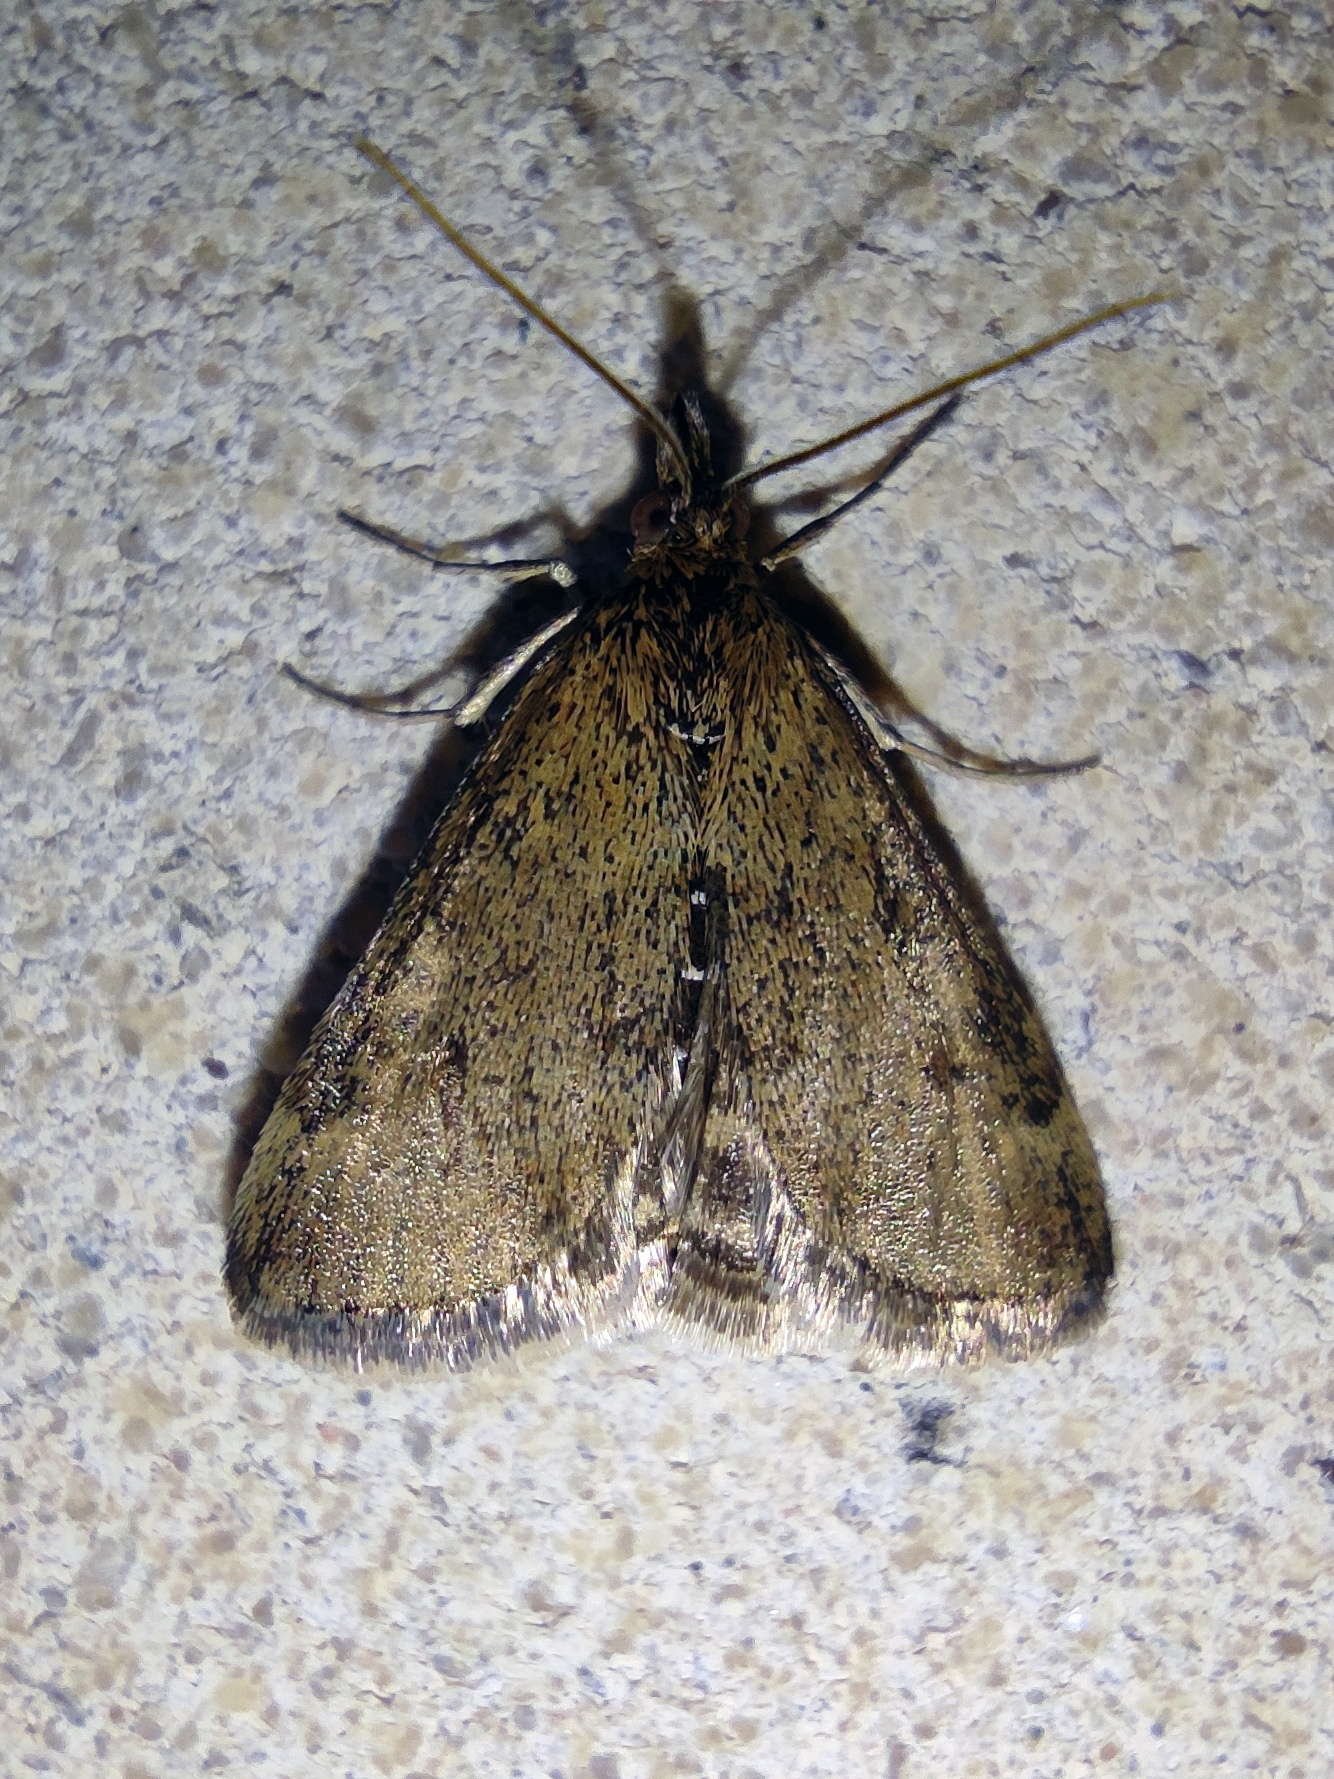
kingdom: Animalia
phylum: Arthropoda
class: Insecta
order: Lepidoptera
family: Crambidae
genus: Pyrausta
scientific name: Pyrausta despicata
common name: Straw-barred pearl
